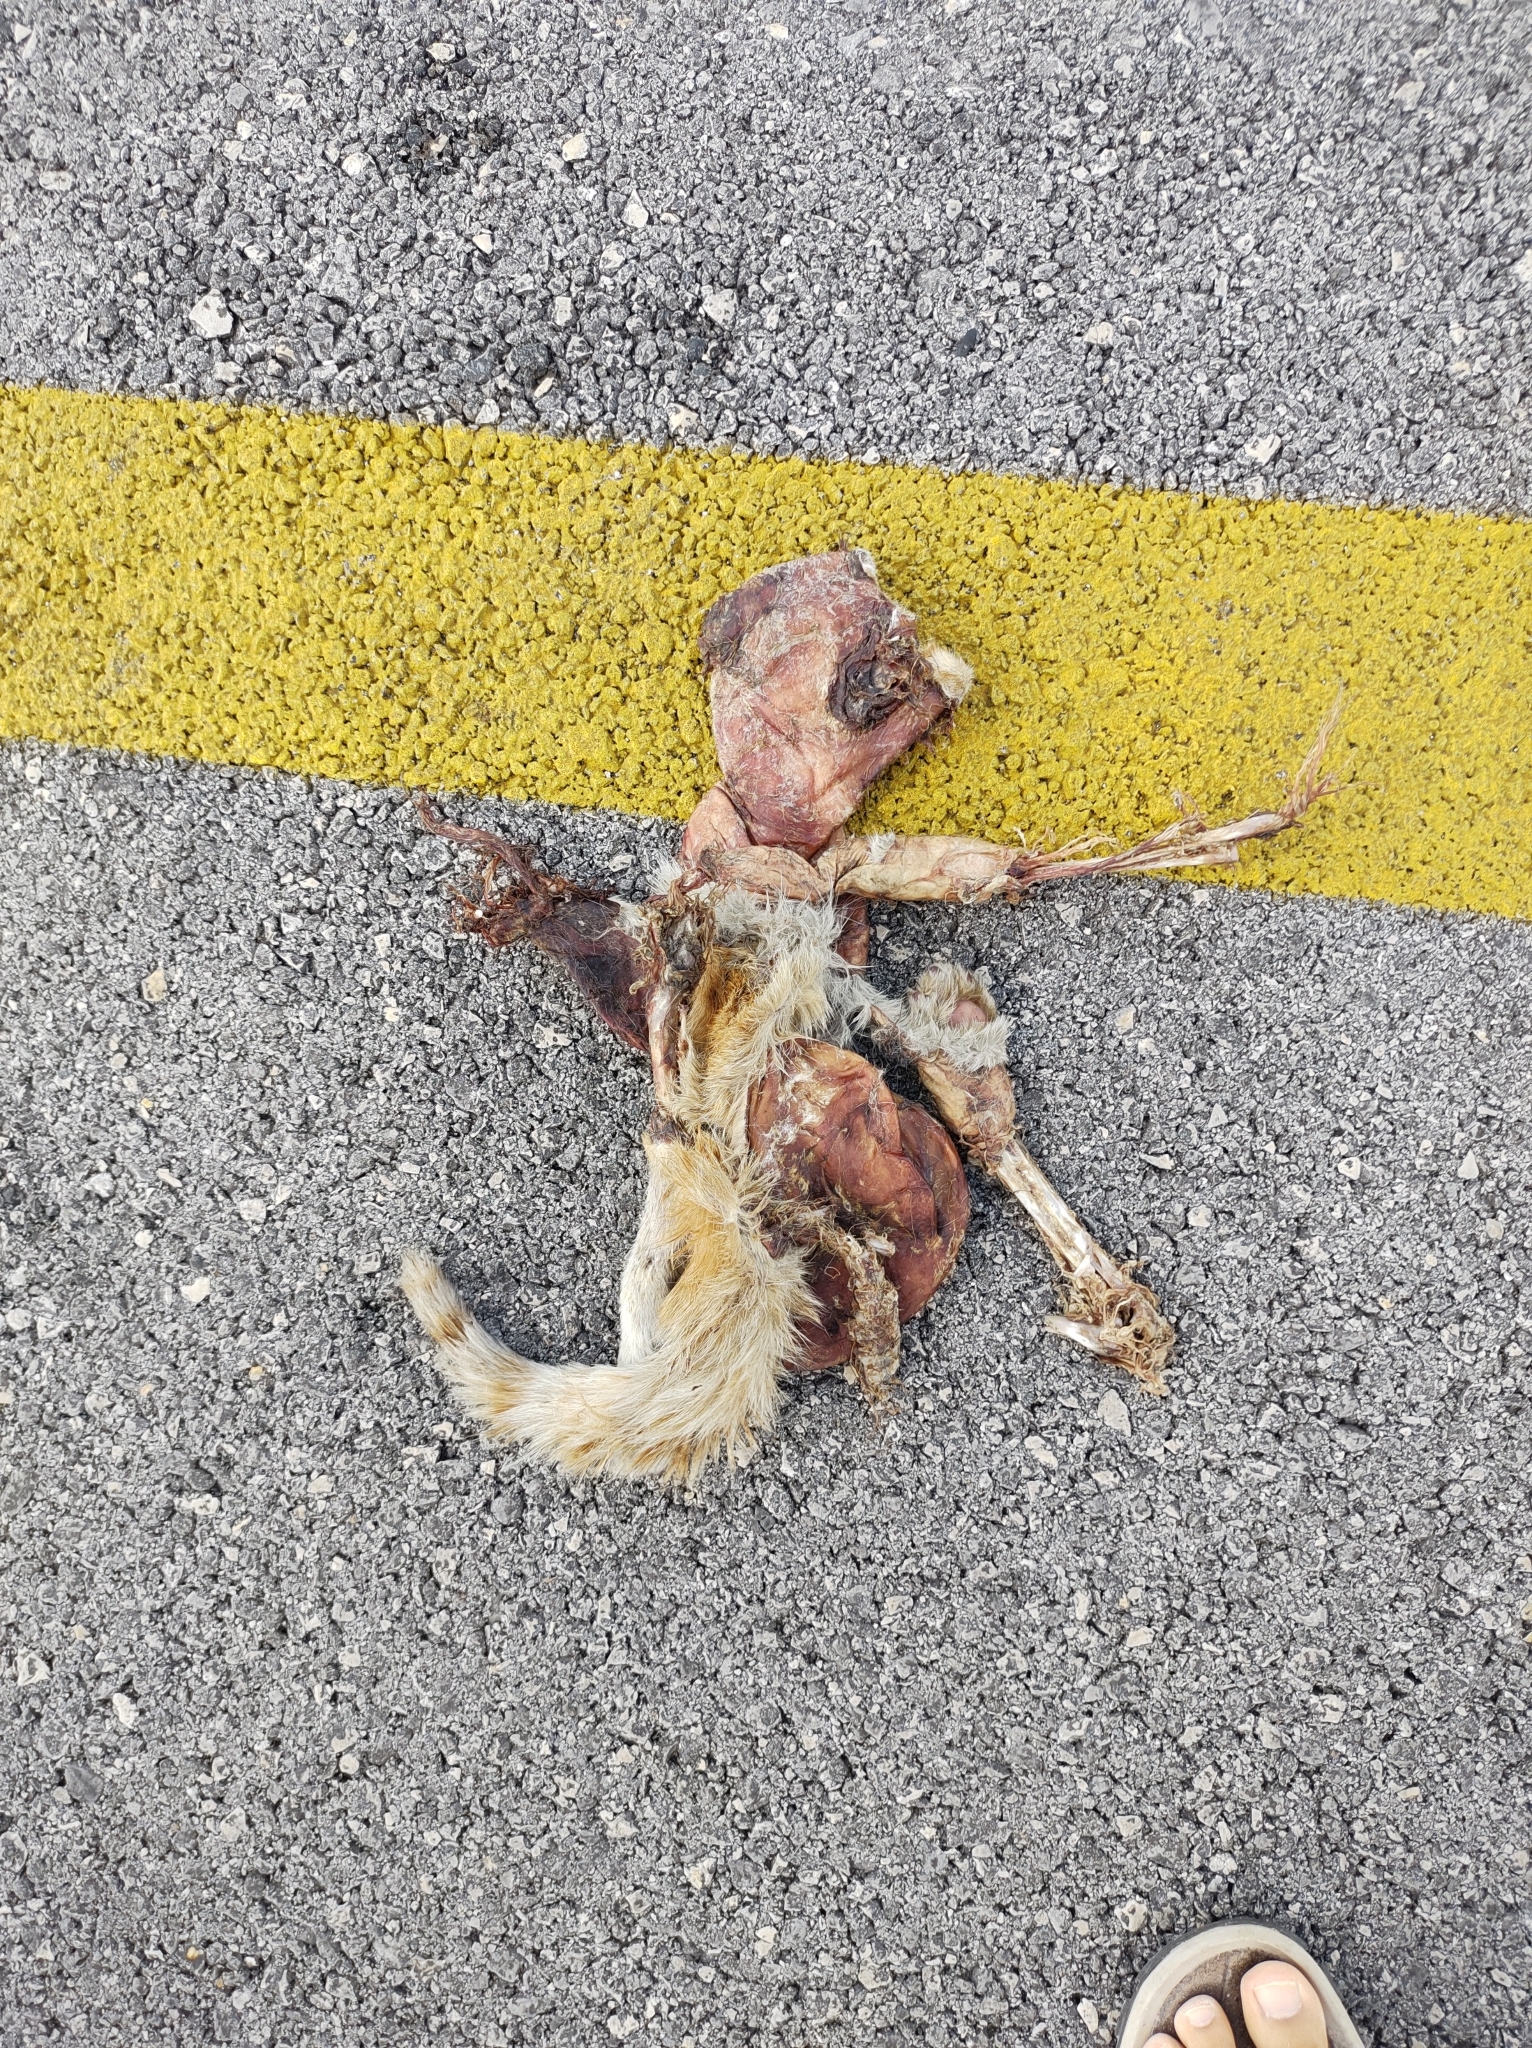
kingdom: Animalia
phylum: Chordata
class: Mammalia
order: Carnivora
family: Felidae
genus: Felis
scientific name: Felis catus
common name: Domestic cat
